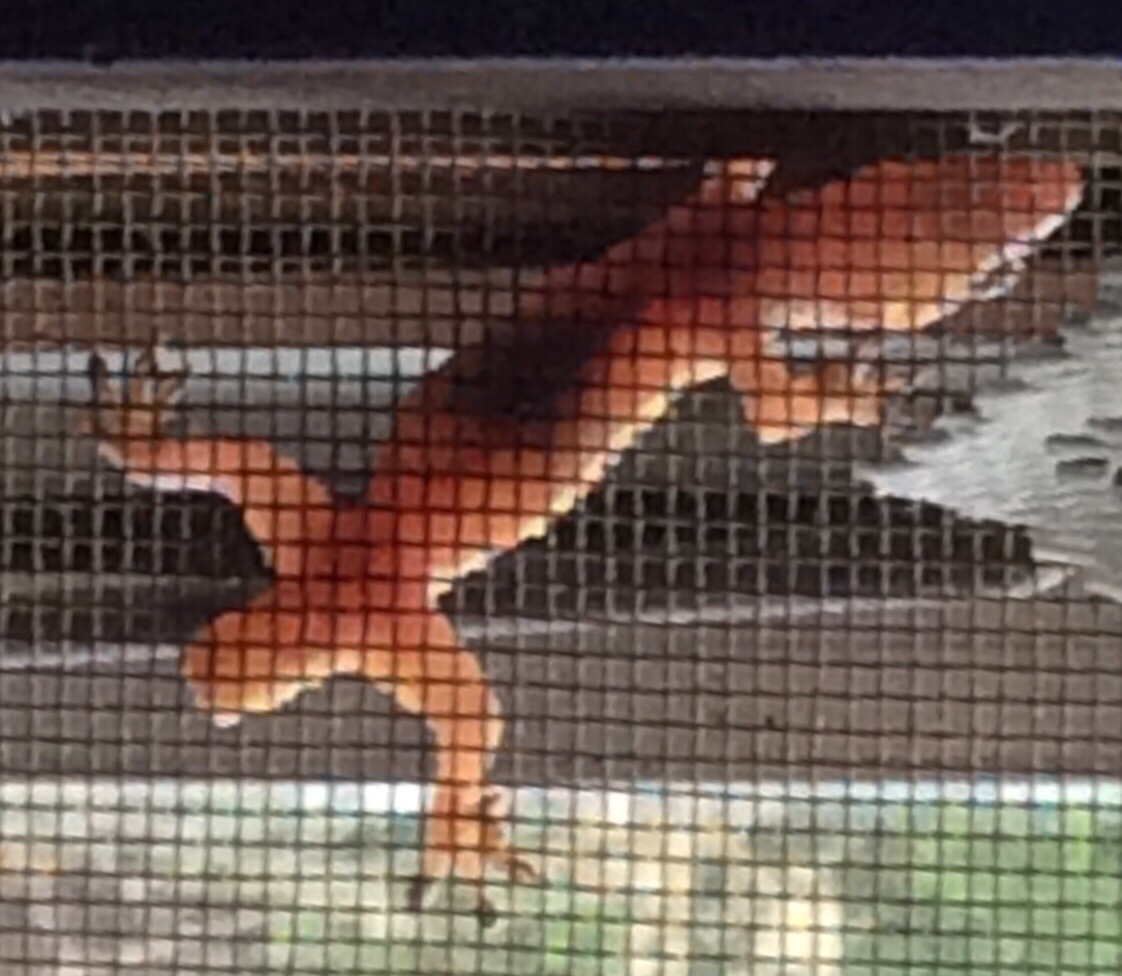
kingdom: Animalia
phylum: Chordata
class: Squamata
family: Gekkonidae
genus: Hemidactylus
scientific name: Hemidactylus turcicus
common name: Turkish gecko
